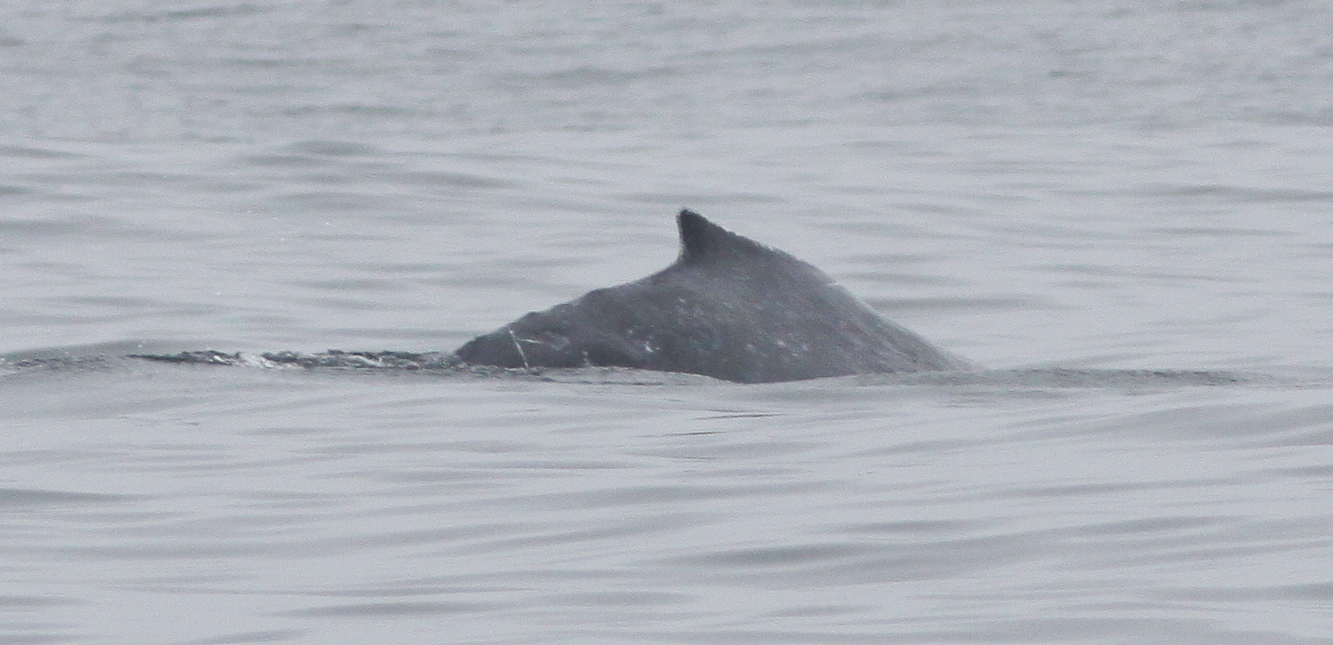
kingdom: Animalia
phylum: Chordata
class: Mammalia
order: Cetacea
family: Balaenopteridae
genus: Megaptera
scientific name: Megaptera novaeangliae
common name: Humpback whale
